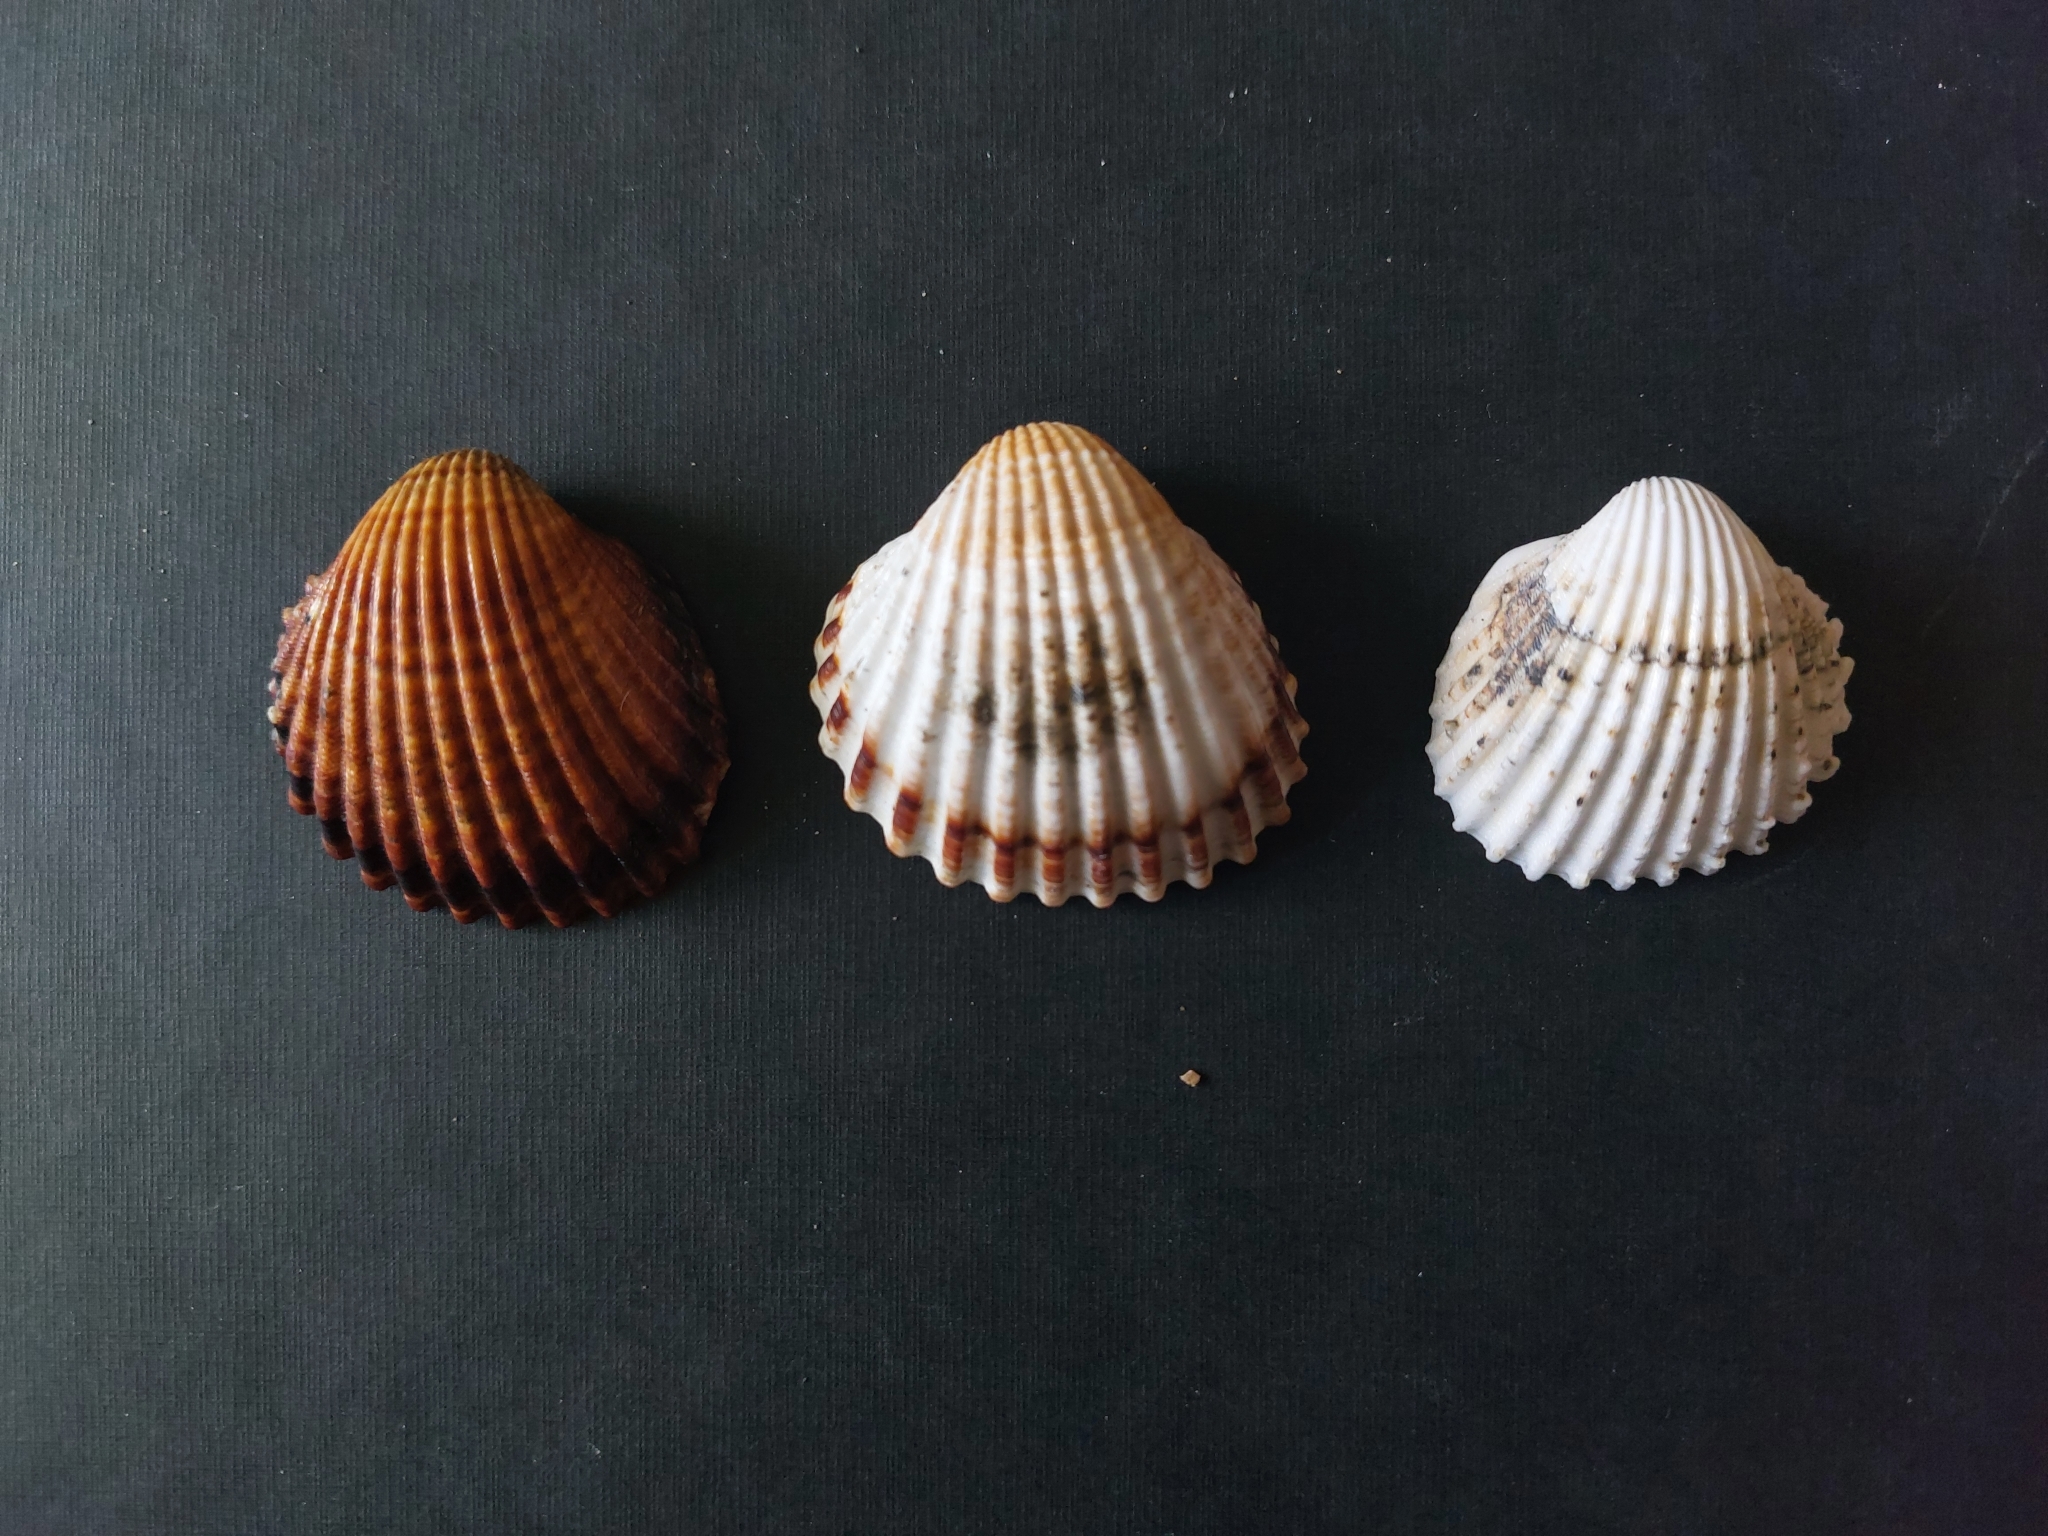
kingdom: Animalia
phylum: Mollusca
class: Bivalvia
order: Cardiida
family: Cardiidae
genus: Acanthocardia
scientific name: Acanthocardia tuberculata
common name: Rough cockle
